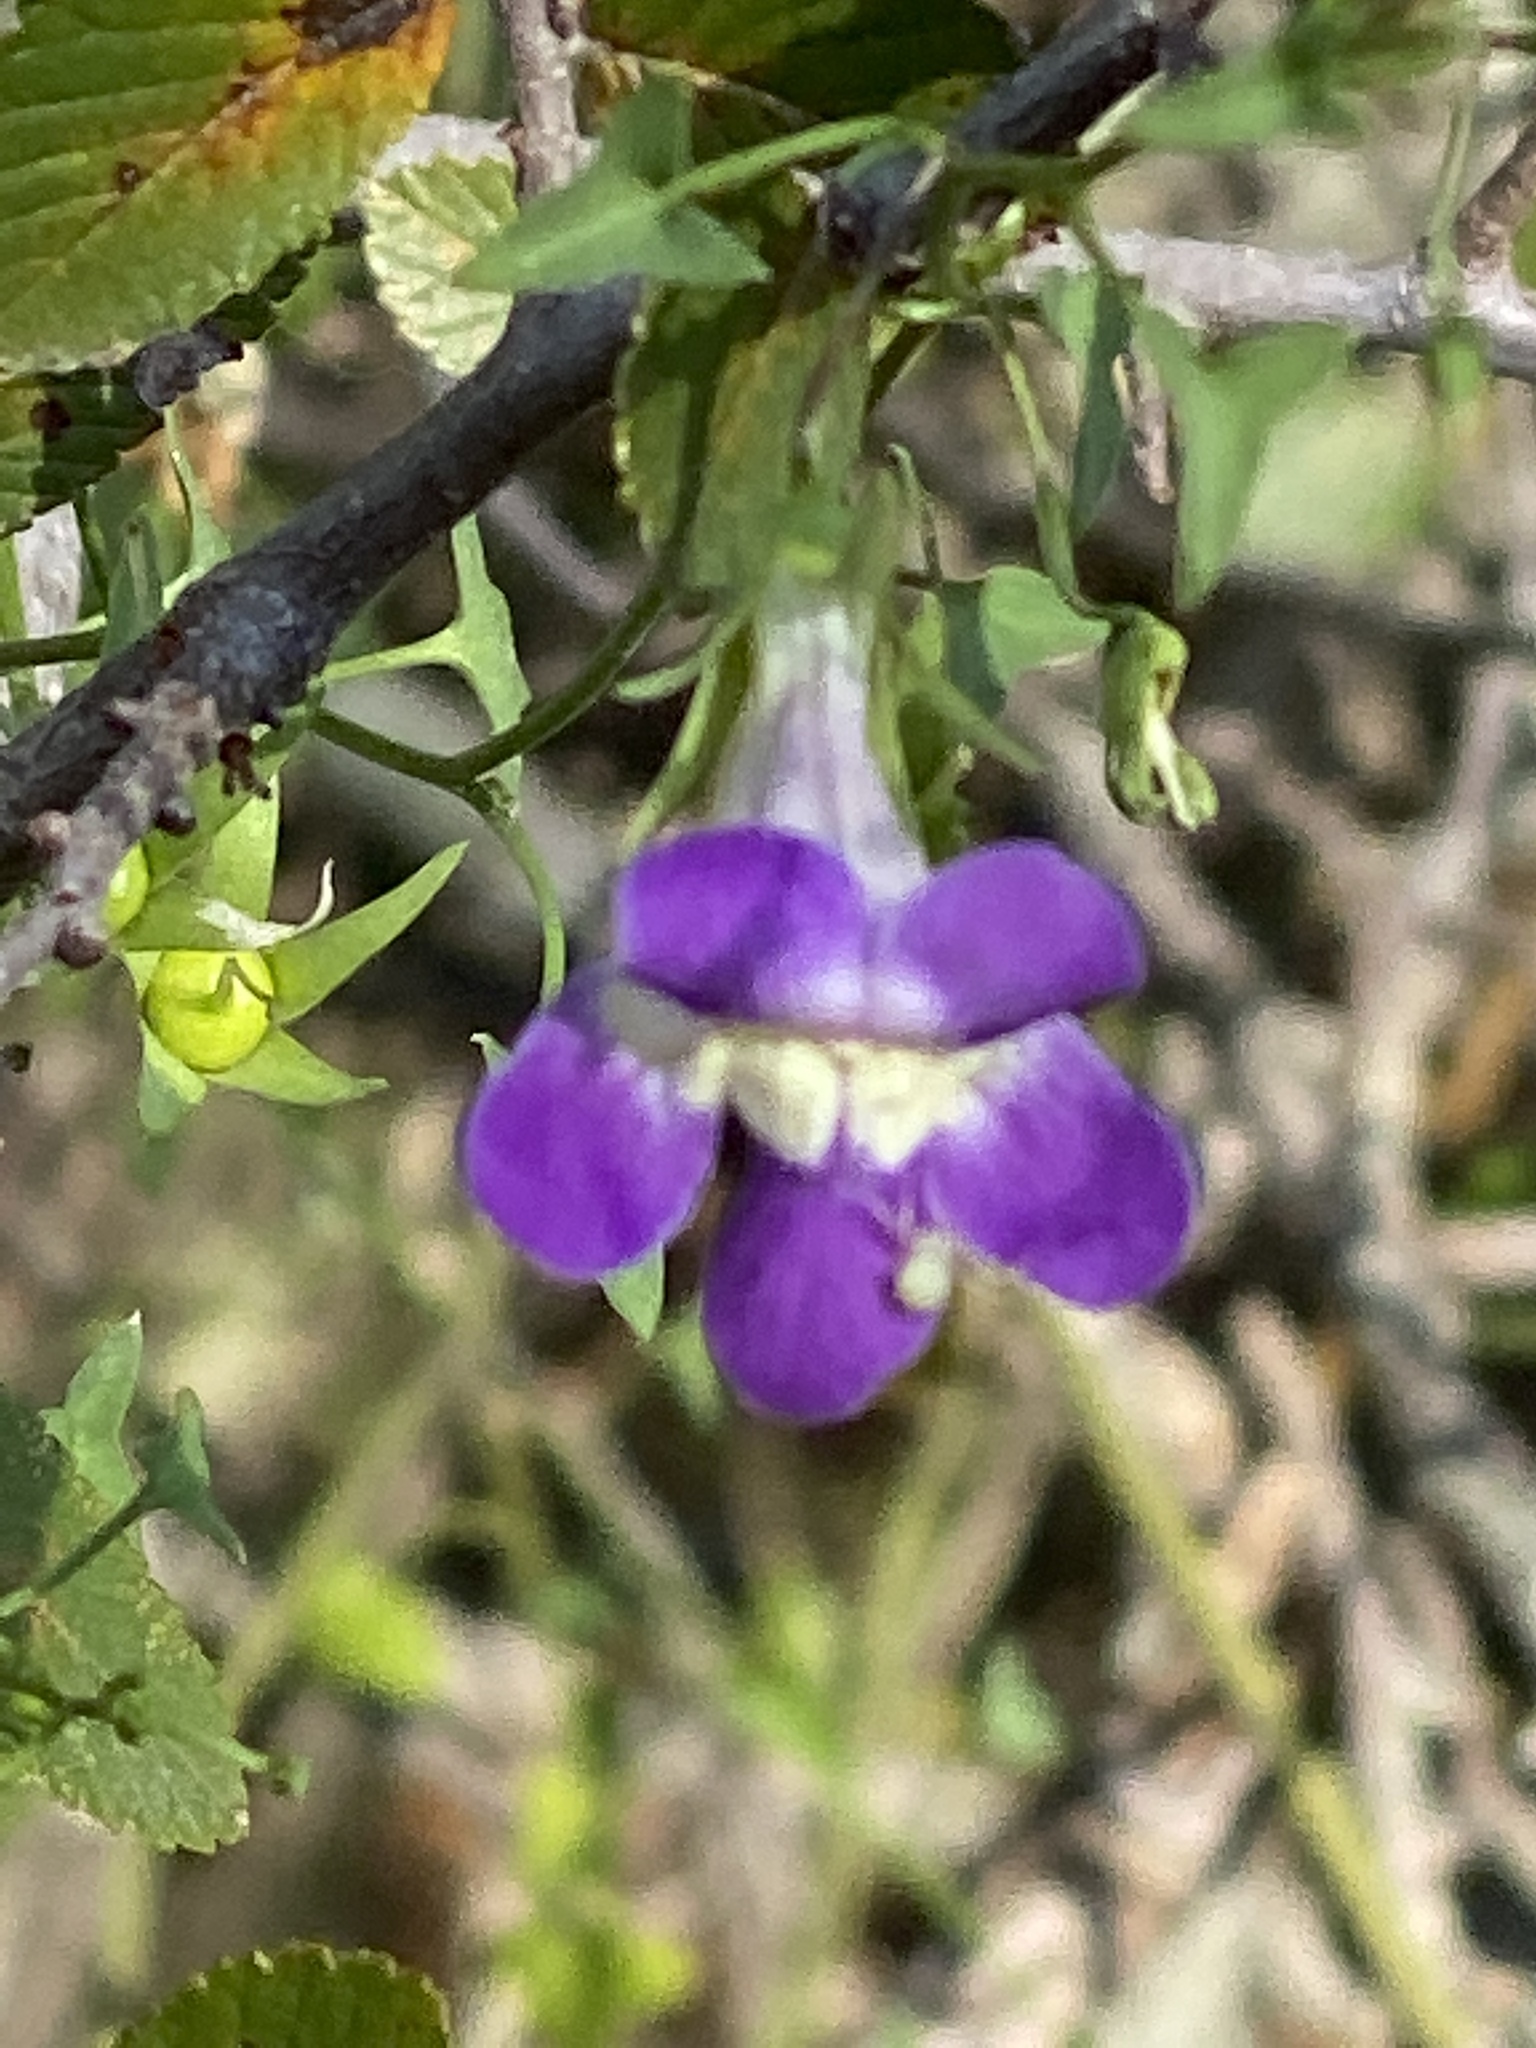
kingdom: Plantae
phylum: Tracheophyta
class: Magnoliopsida
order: Lamiales
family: Plantaginaceae
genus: Maurandella
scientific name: Maurandella antirrhiniflora
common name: Violet twining-snapdragon
